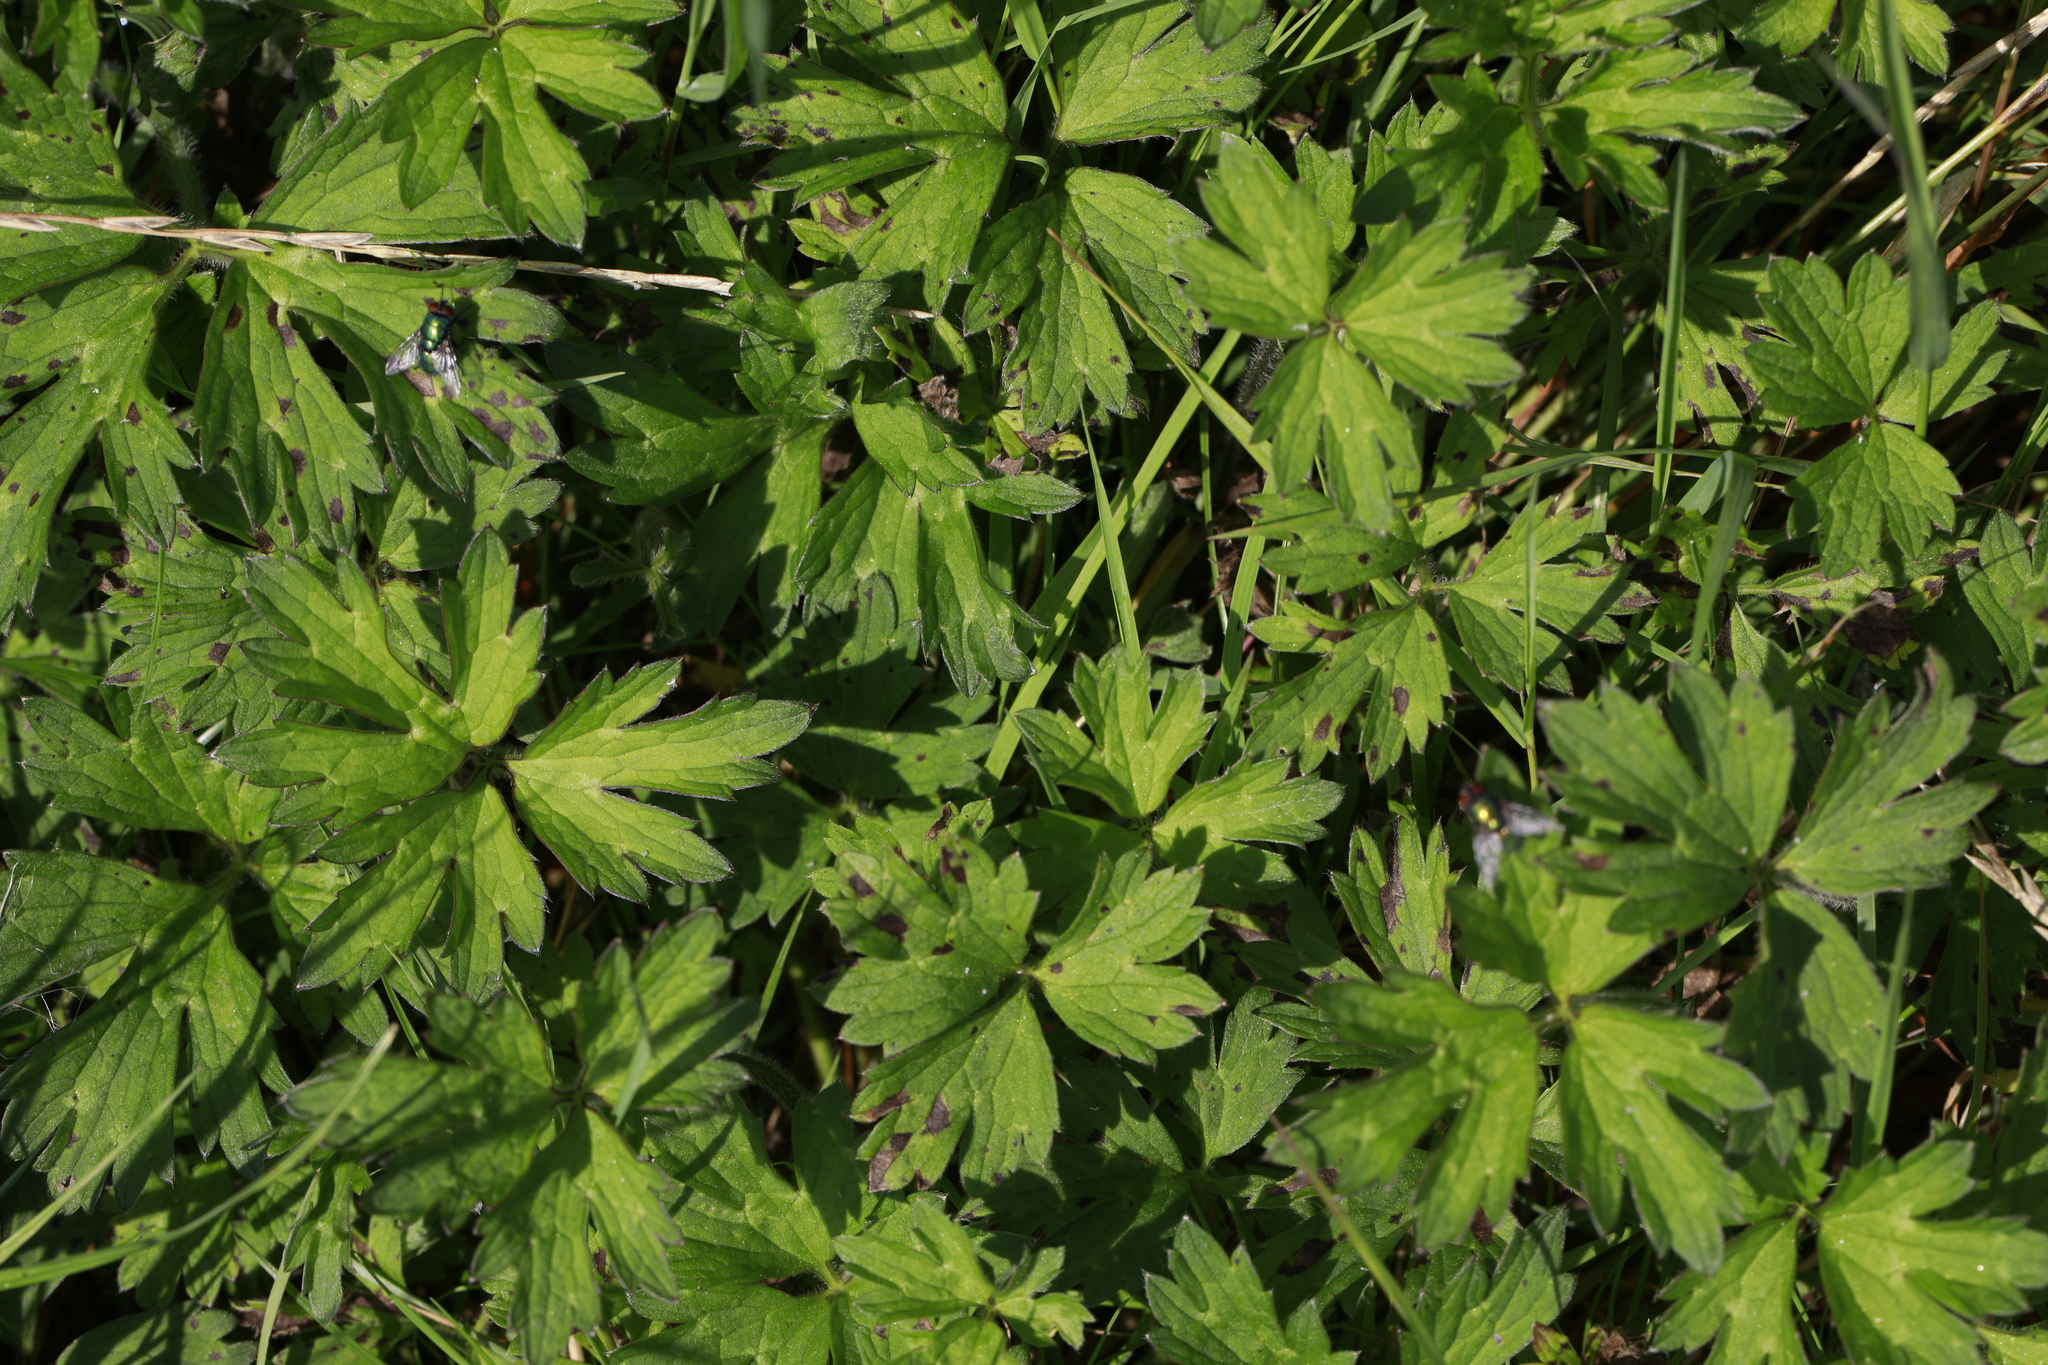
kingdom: Plantae
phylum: Tracheophyta
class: Magnoliopsida
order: Ranunculales
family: Ranunculaceae
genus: Ranunculus
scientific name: Ranunculus repens
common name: Creeping buttercup
